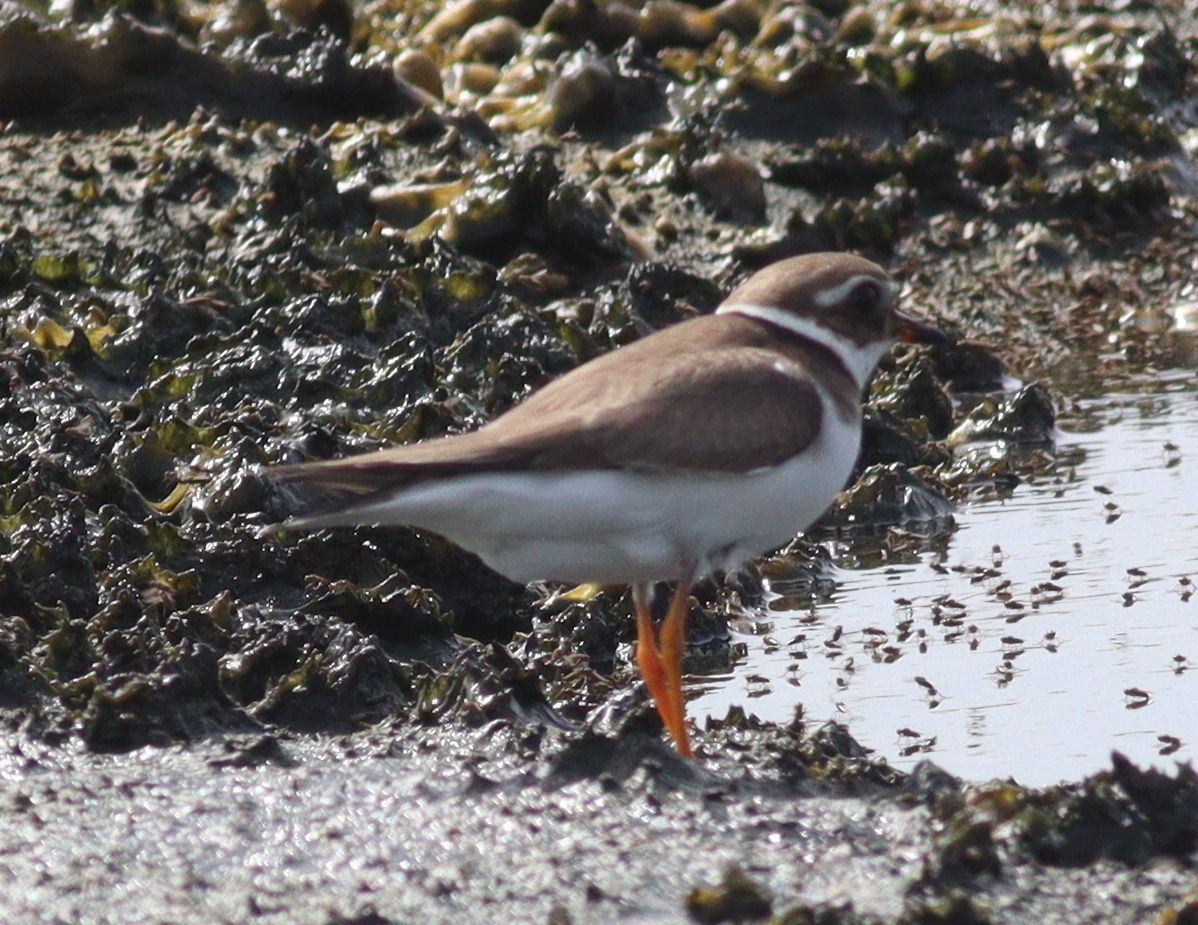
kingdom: Animalia
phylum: Chordata
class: Aves
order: Charadriiformes
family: Charadriidae
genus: Charadrius
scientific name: Charadrius hiaticula
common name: Common ringed plover
